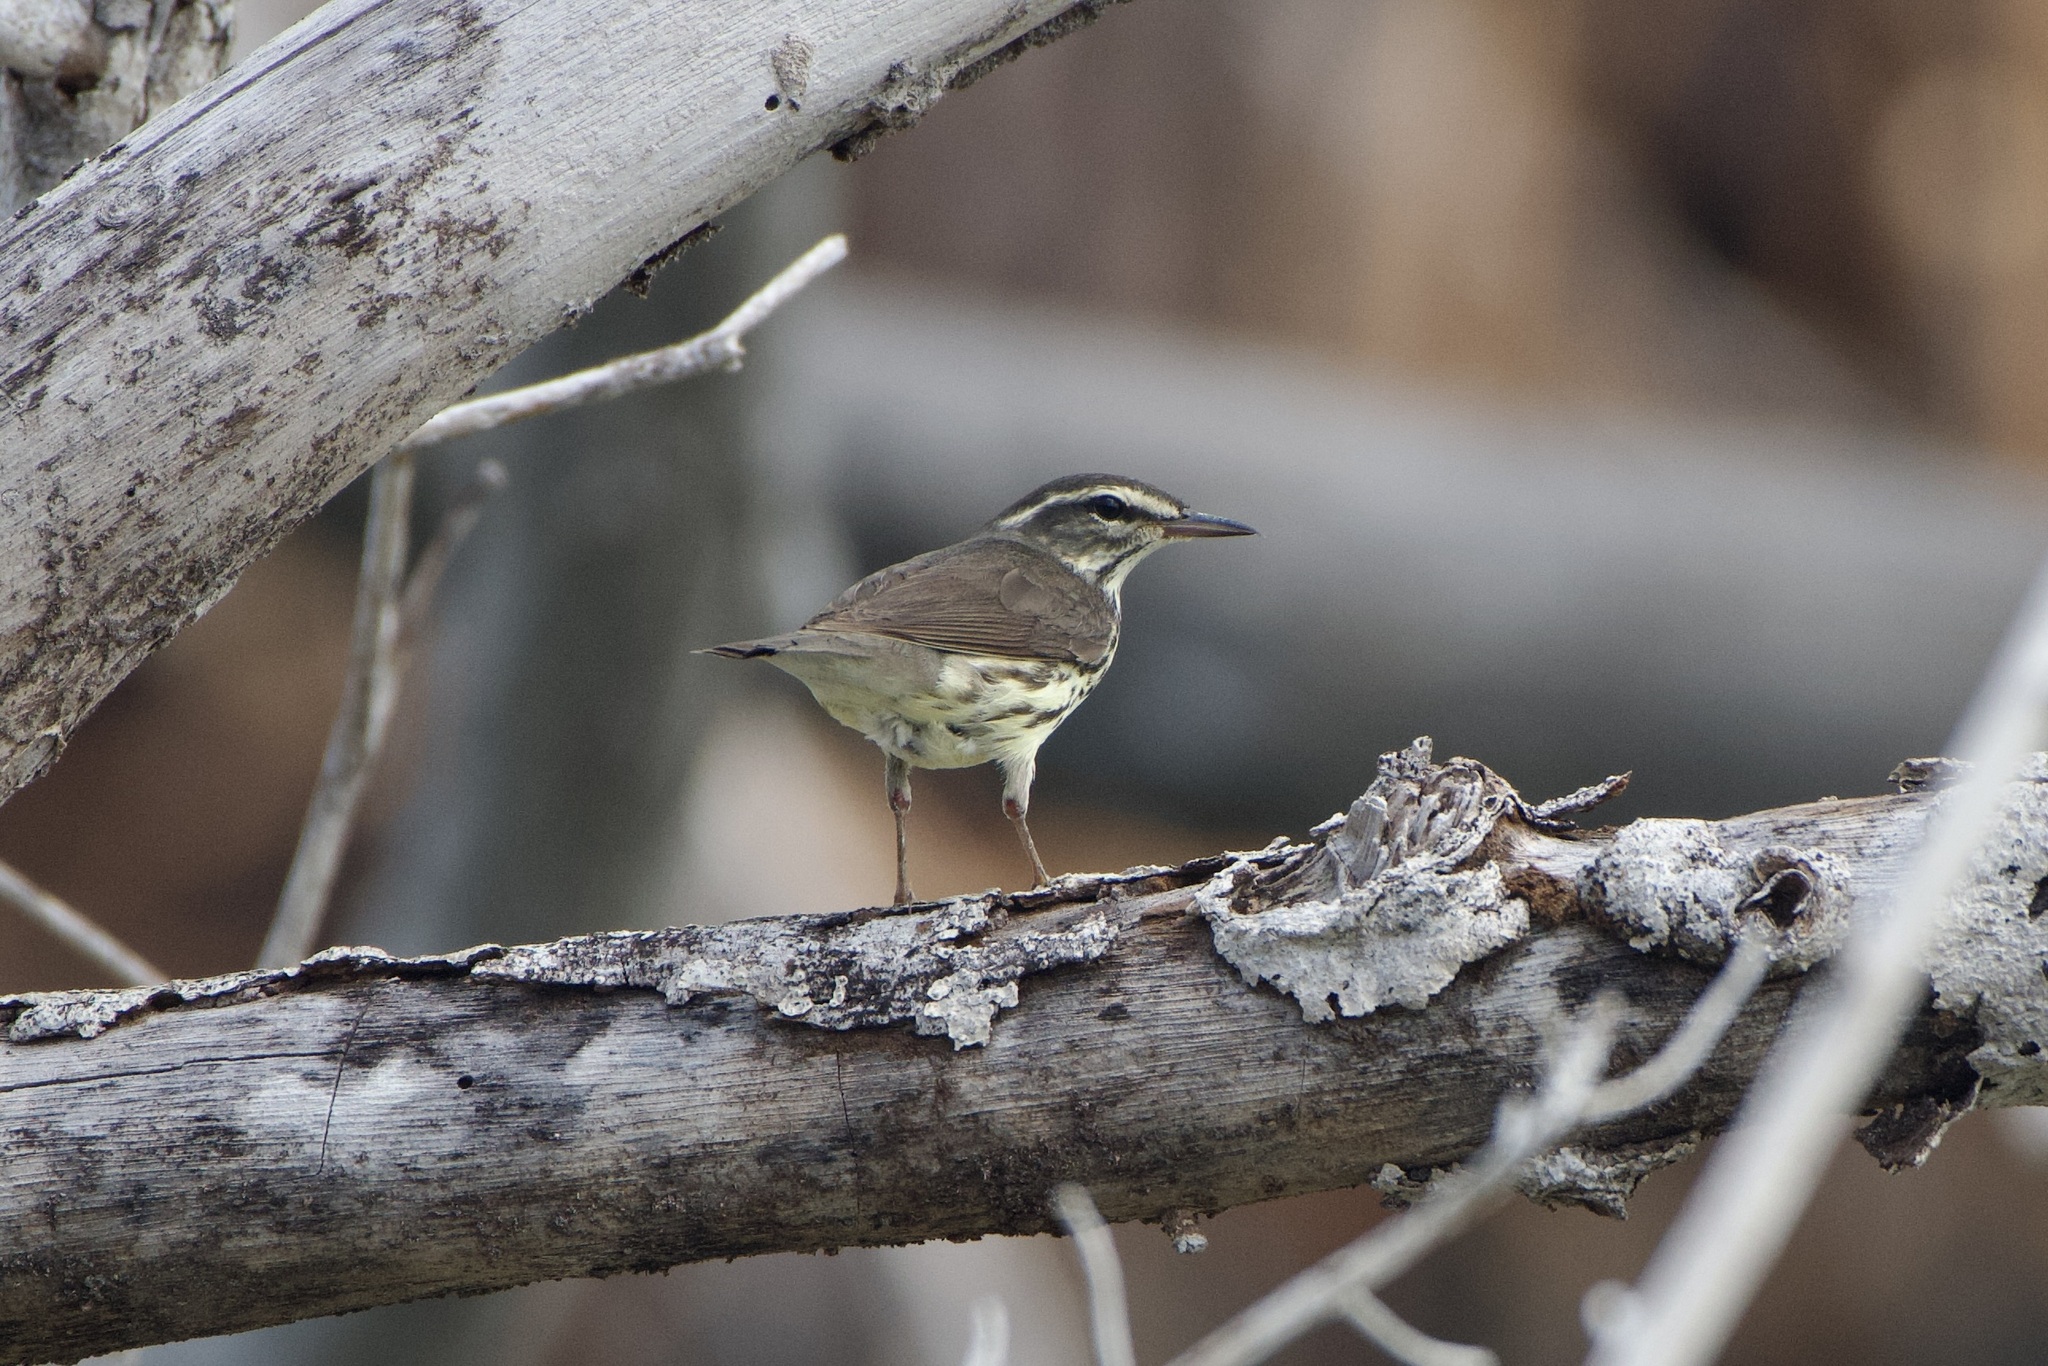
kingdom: Animalia
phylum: Chordata
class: Aves
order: Passeriformes
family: Parulidae
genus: Parkesia
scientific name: Parkesia noveboracensis
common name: Northern waterthrush
